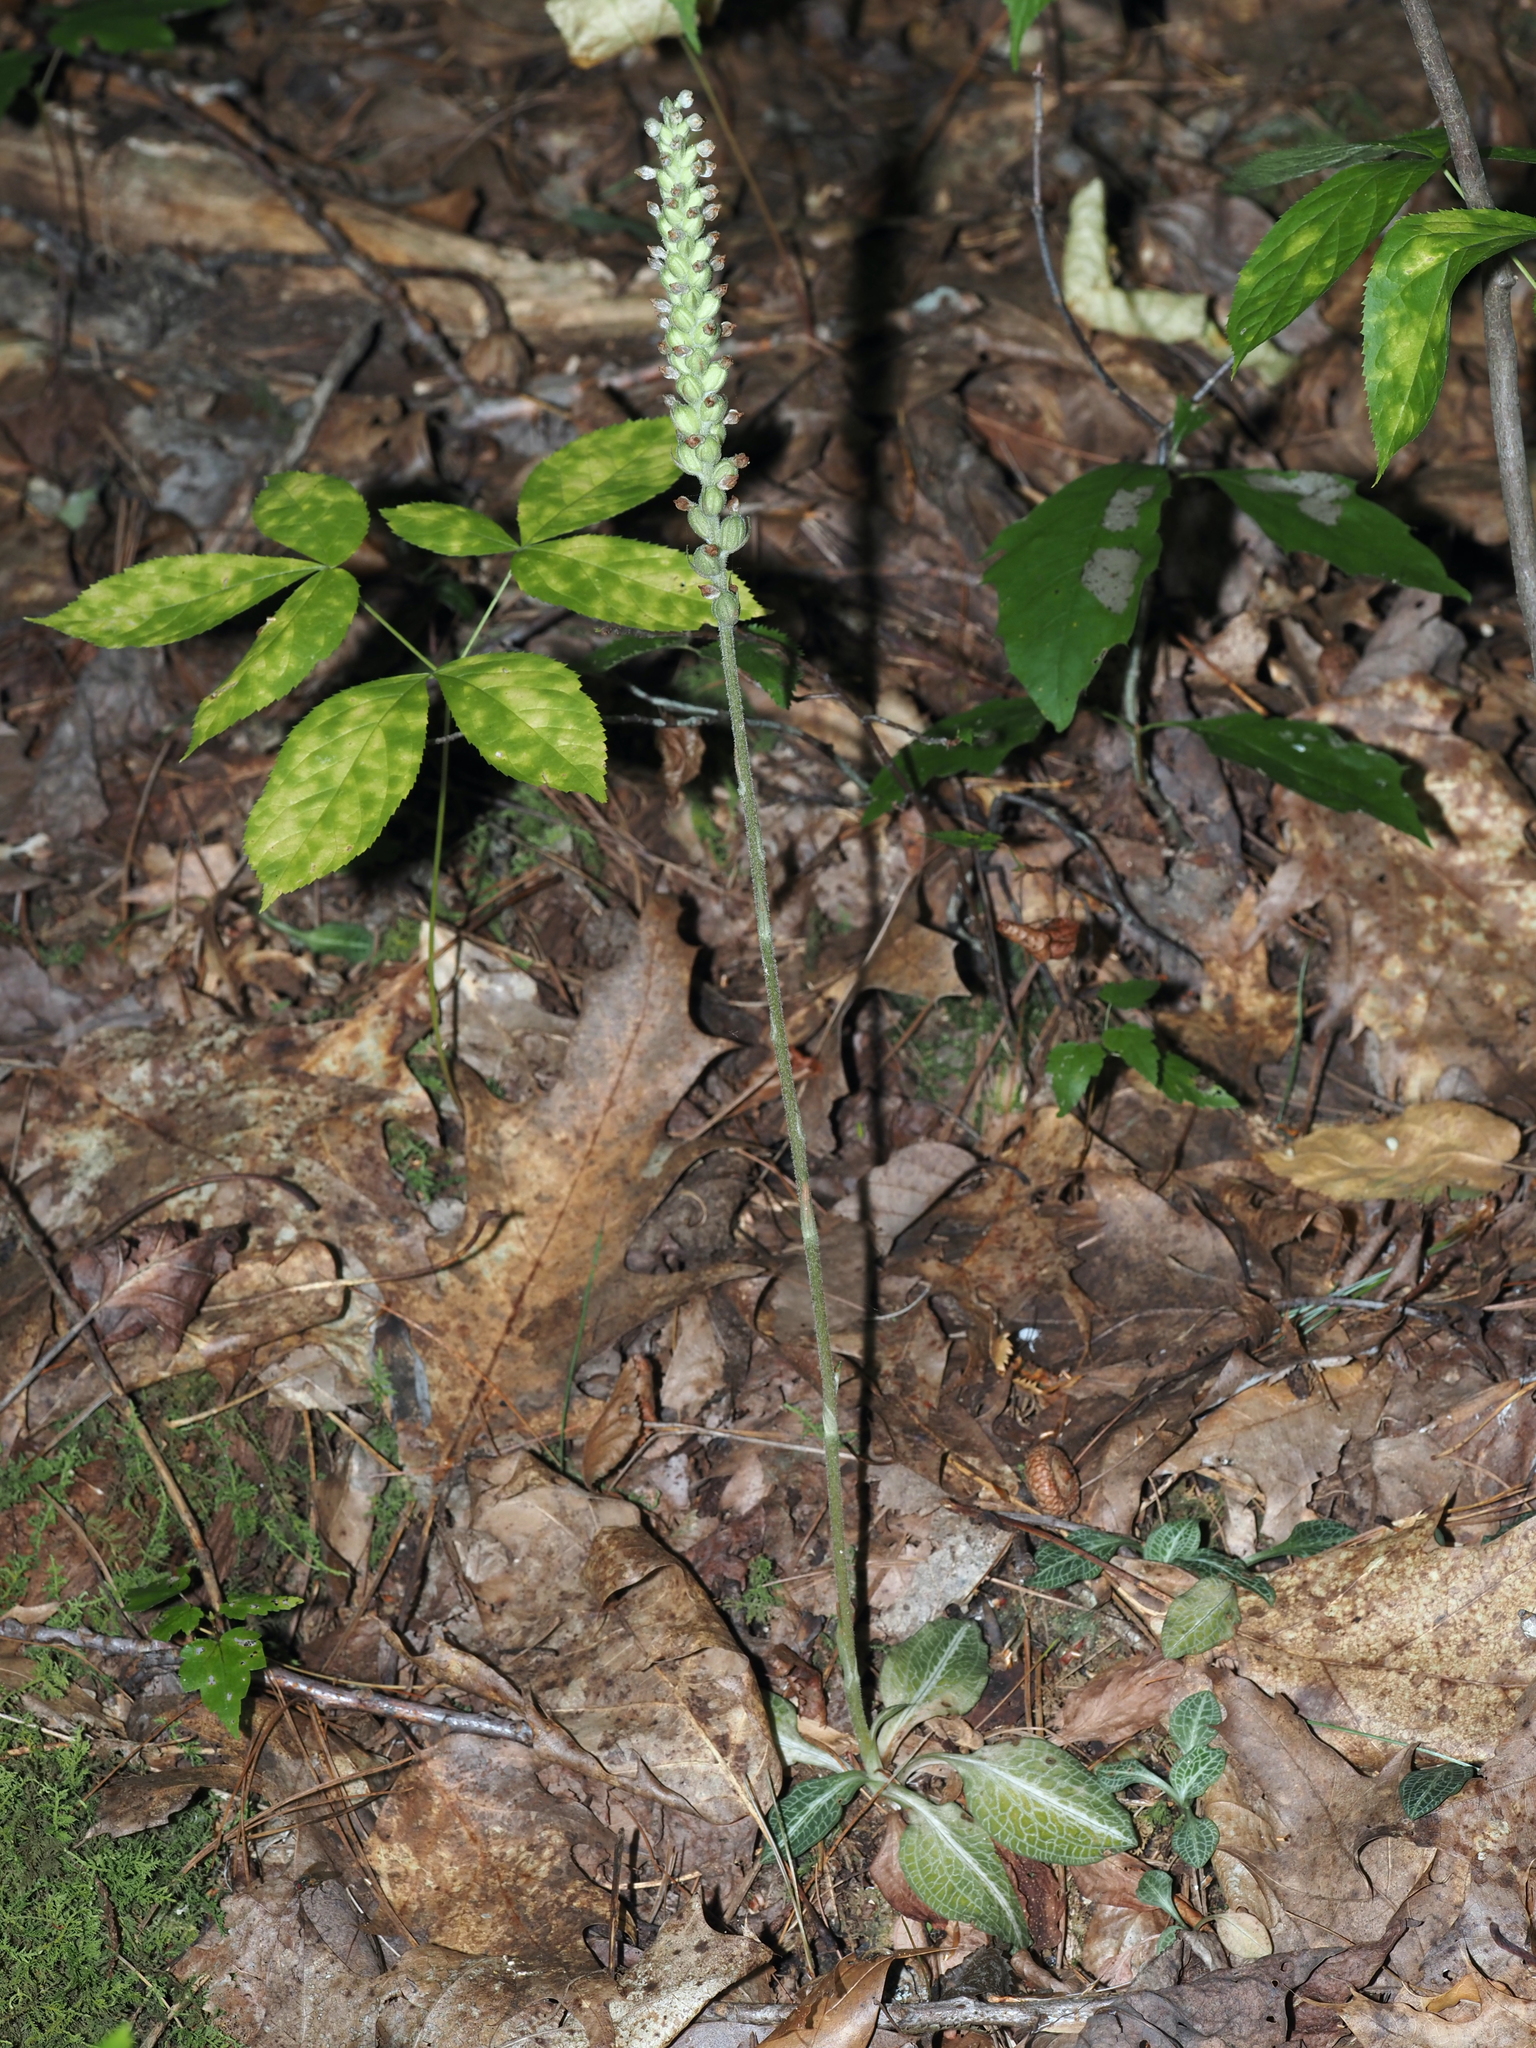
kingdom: Plantae
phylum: Tracheophyta
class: Liliopsida
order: Asparagales
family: Orchidaceae
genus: Goodyera
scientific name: Goodyera pubescens
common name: Downy rattlesnake-plantain
